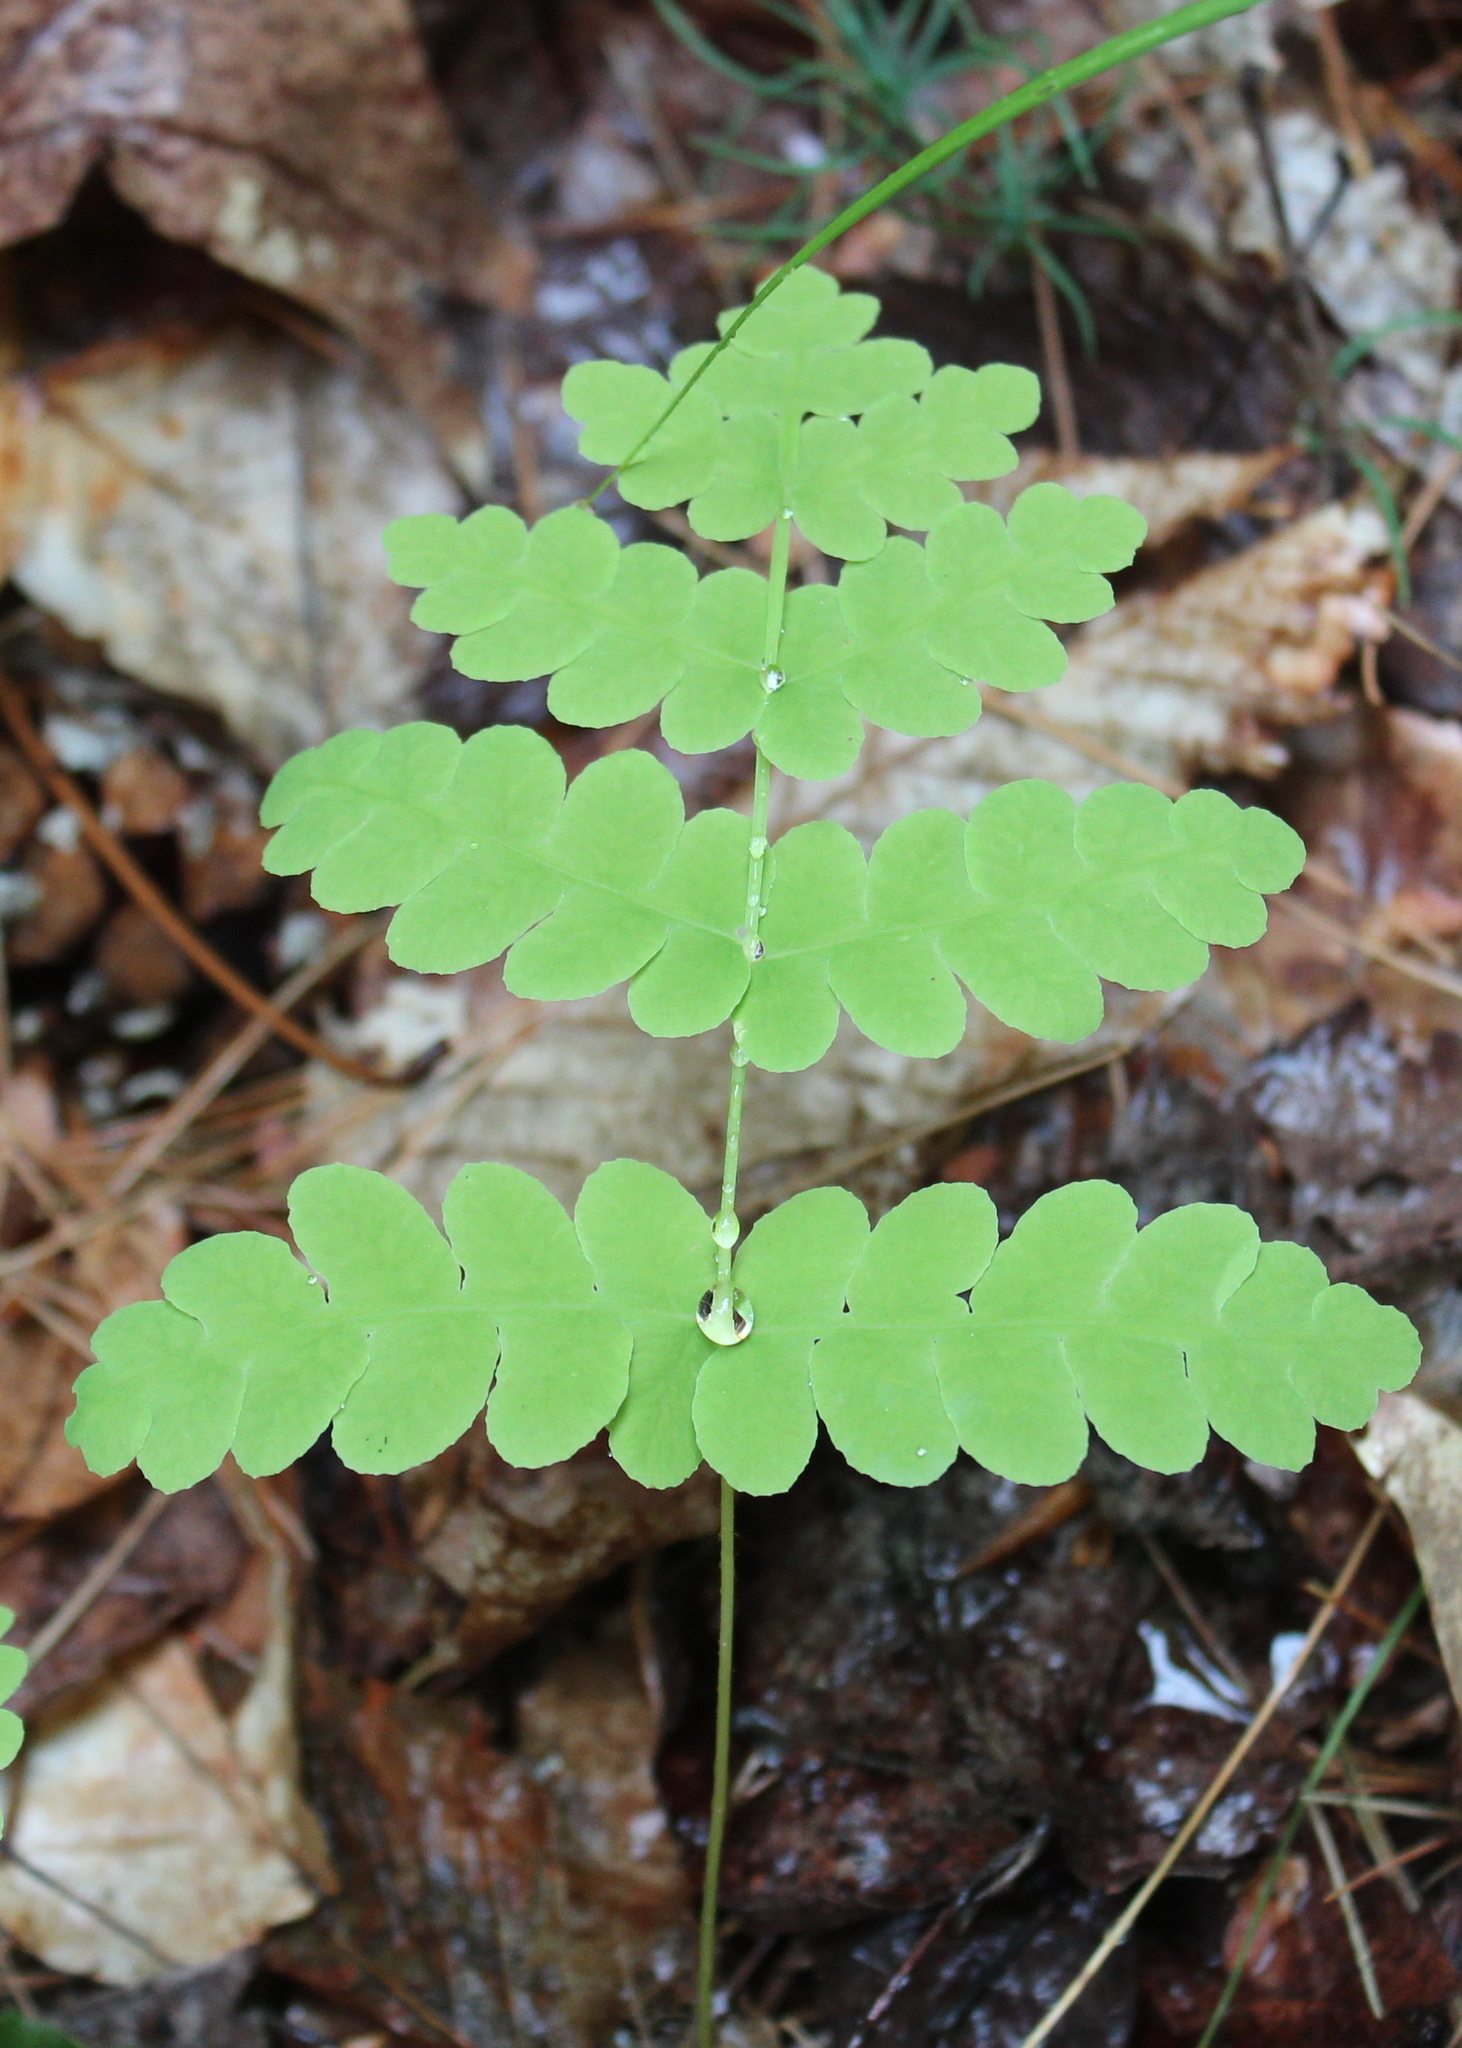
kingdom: Plantae
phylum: Tracheophyta
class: Polypodiopsida
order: Osmundales
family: Osmundaceae
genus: Claytosmunda
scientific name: Claytosmunda claytoniana
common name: Clayton's fern
